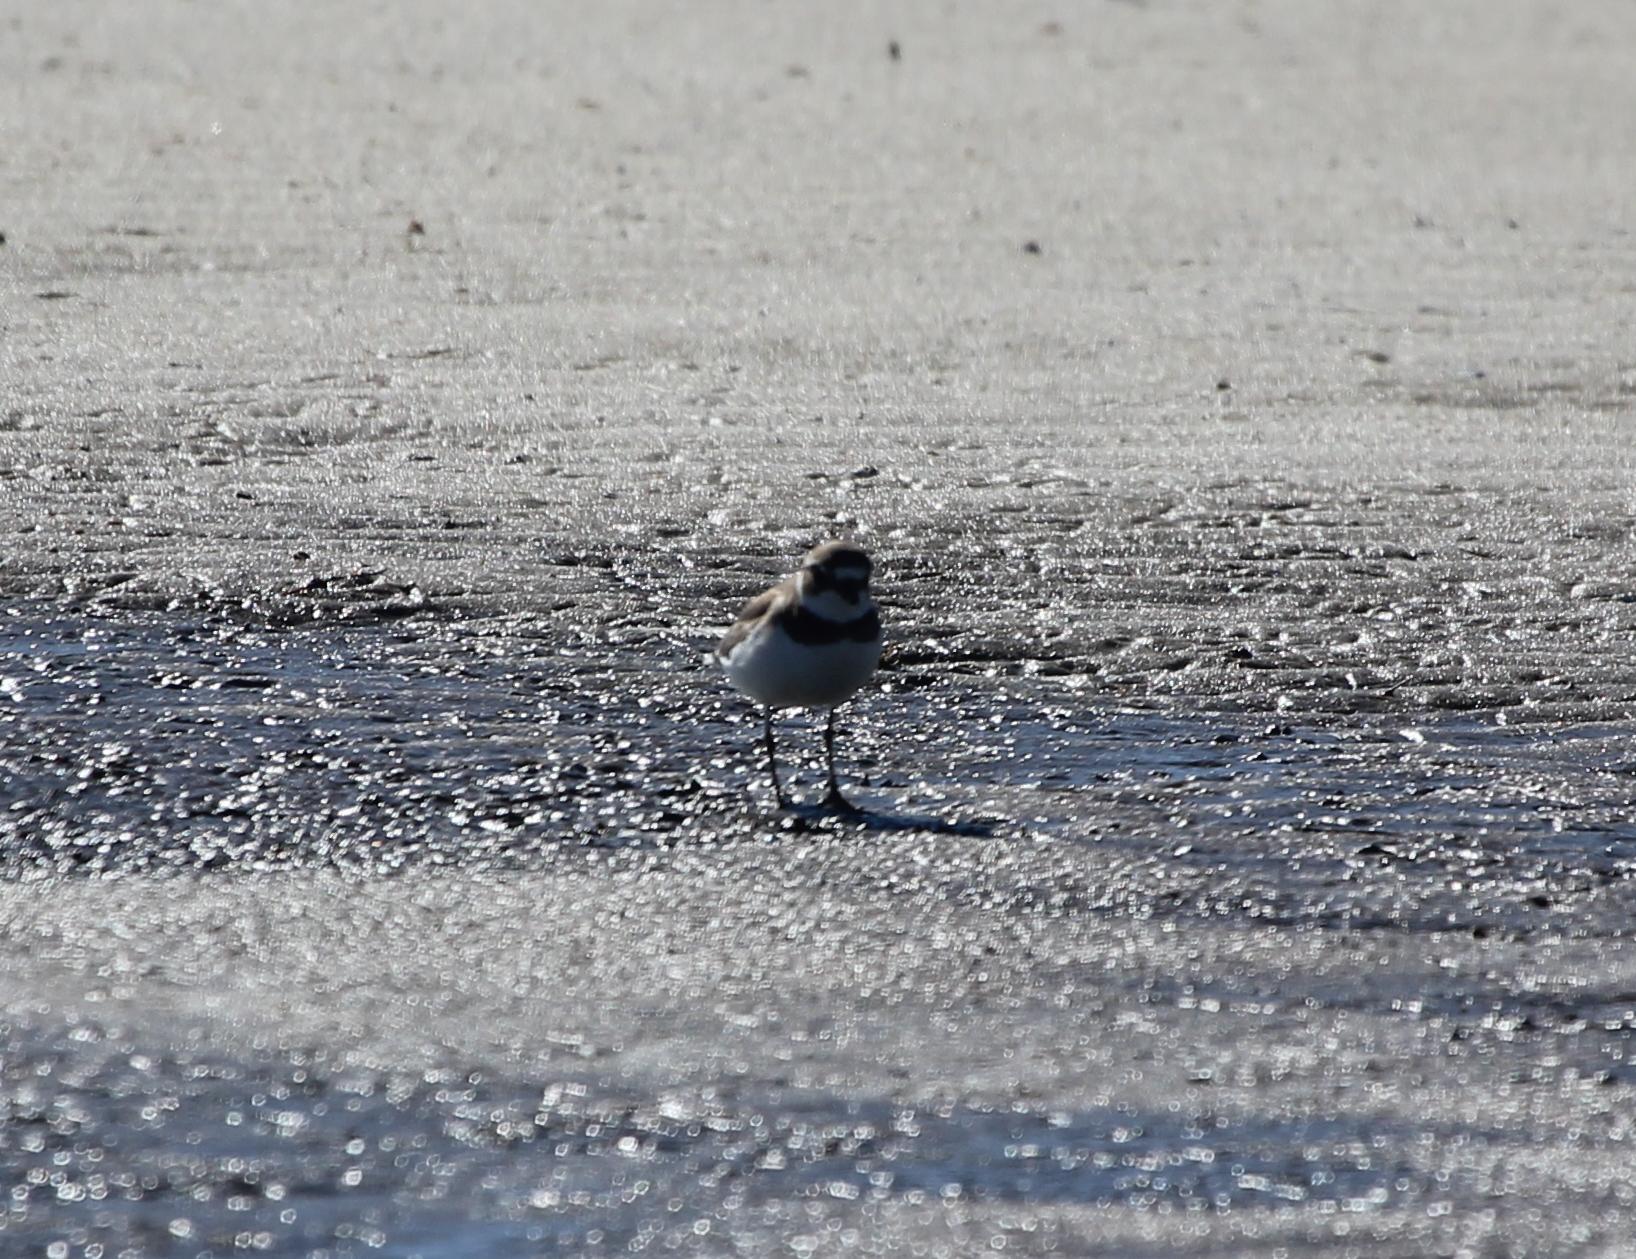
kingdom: Animalia
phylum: Chordata
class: Aves
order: Charadriiformes
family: Charadriidae
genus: Charadrius
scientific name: Charadrius semipalmatus
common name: Semipalmated plover
